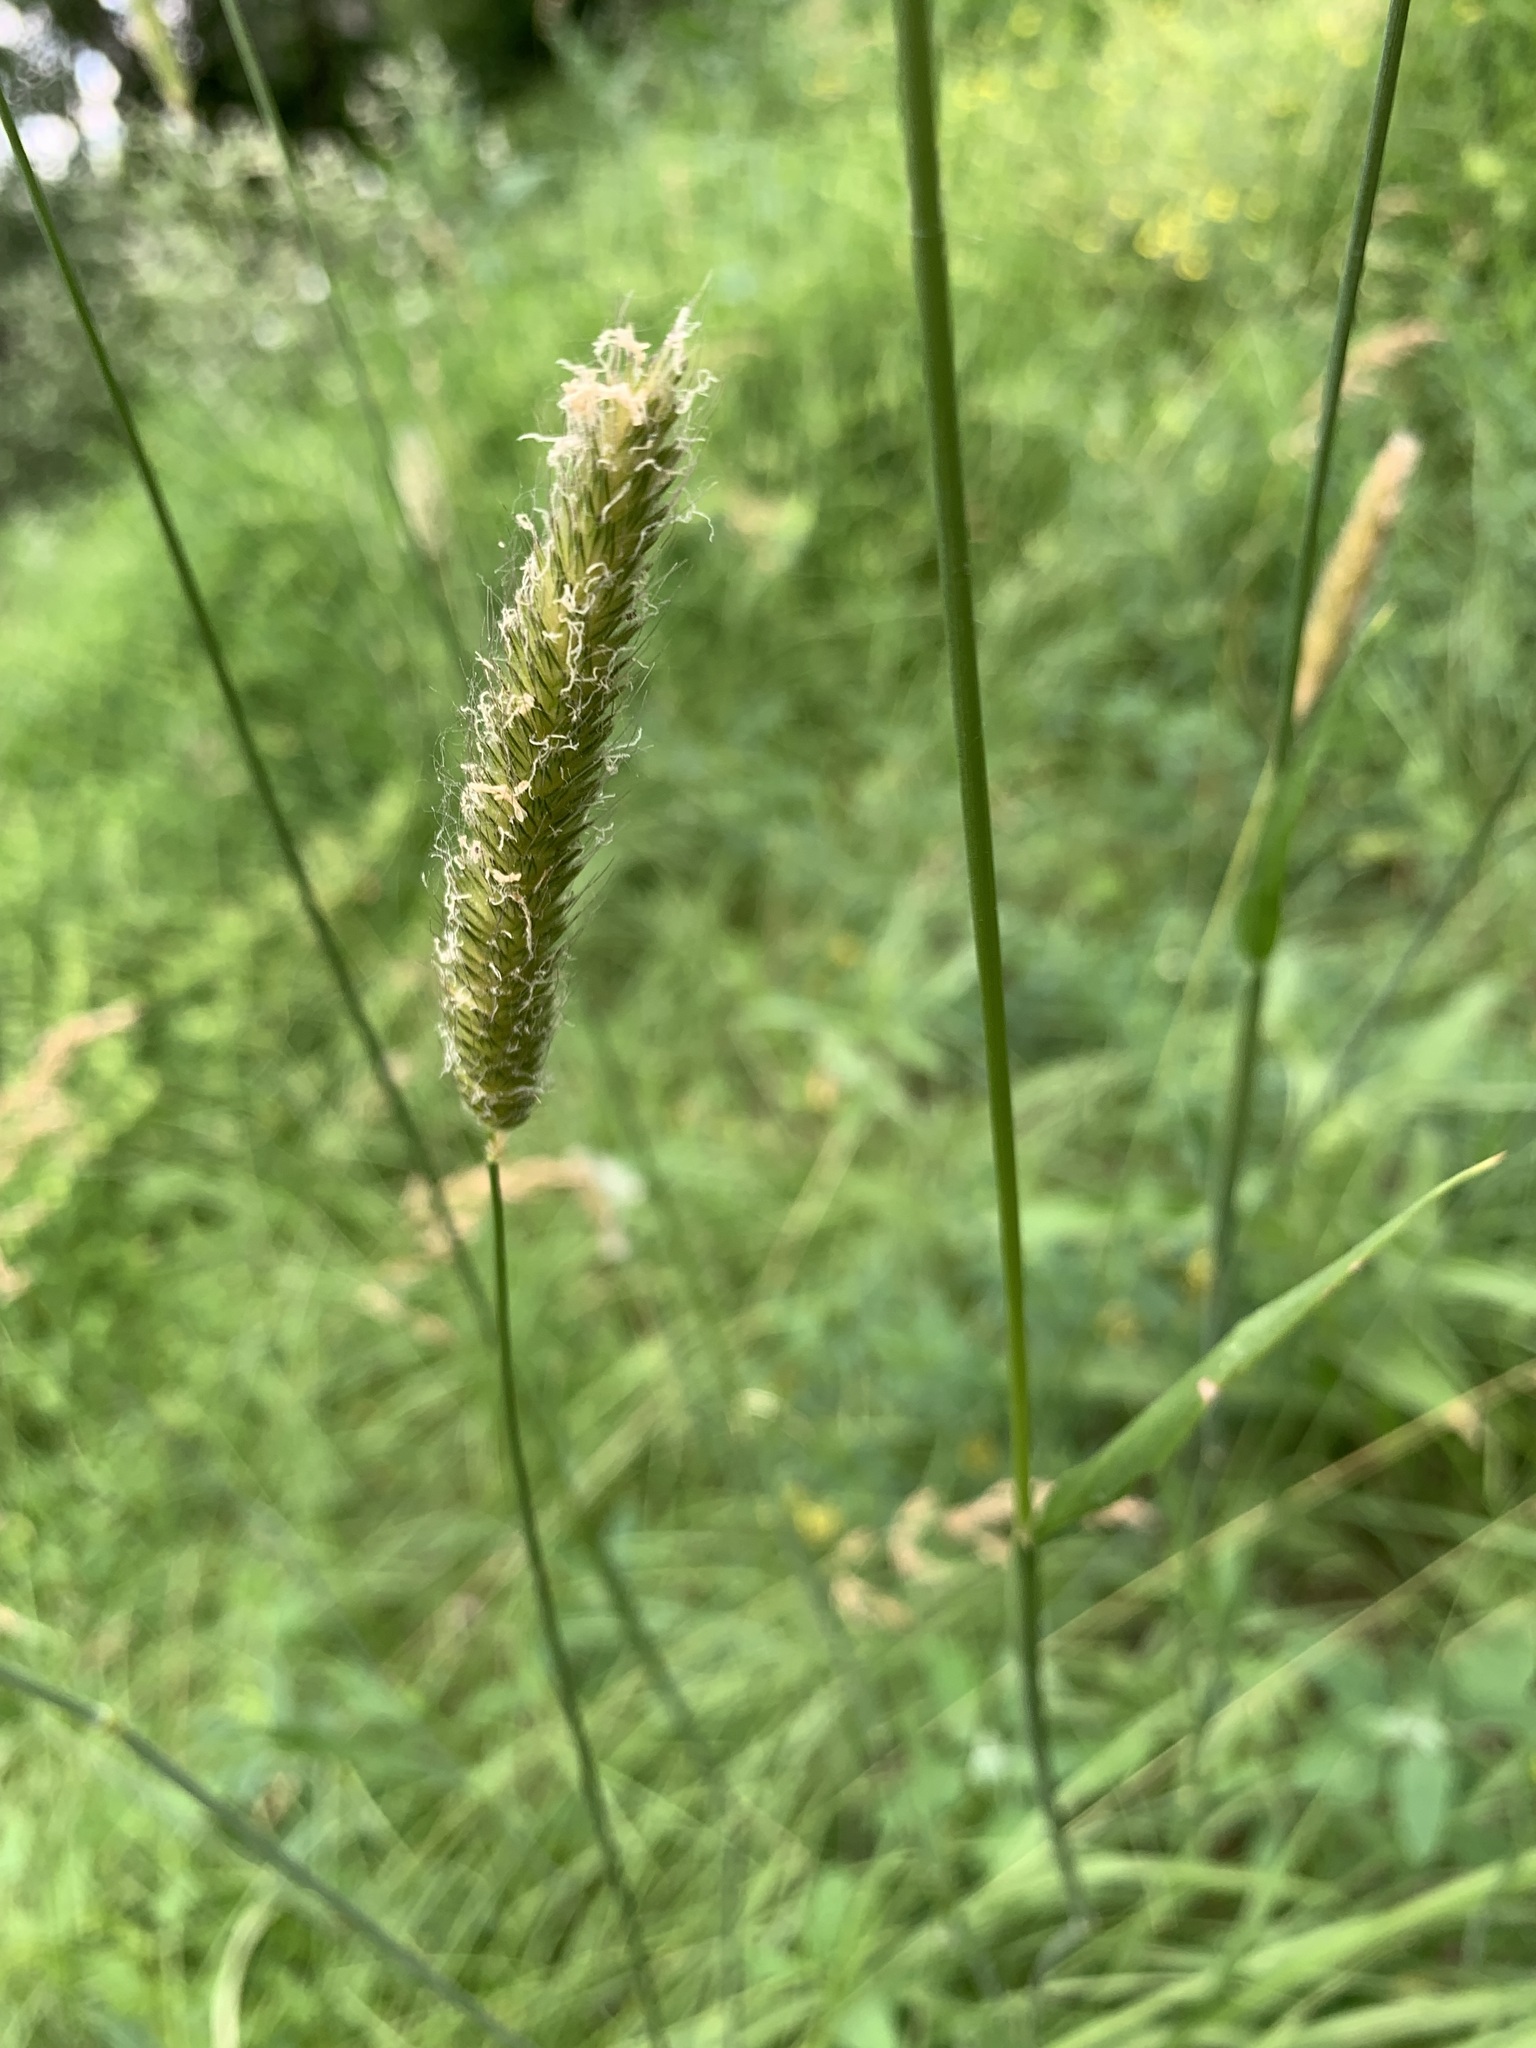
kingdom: Plantae
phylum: Tracheophyta
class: Liliopsida
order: Poales
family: Poaceae
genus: Alopecurus
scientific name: Alopecurus pratensis
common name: Meadow foxtail
